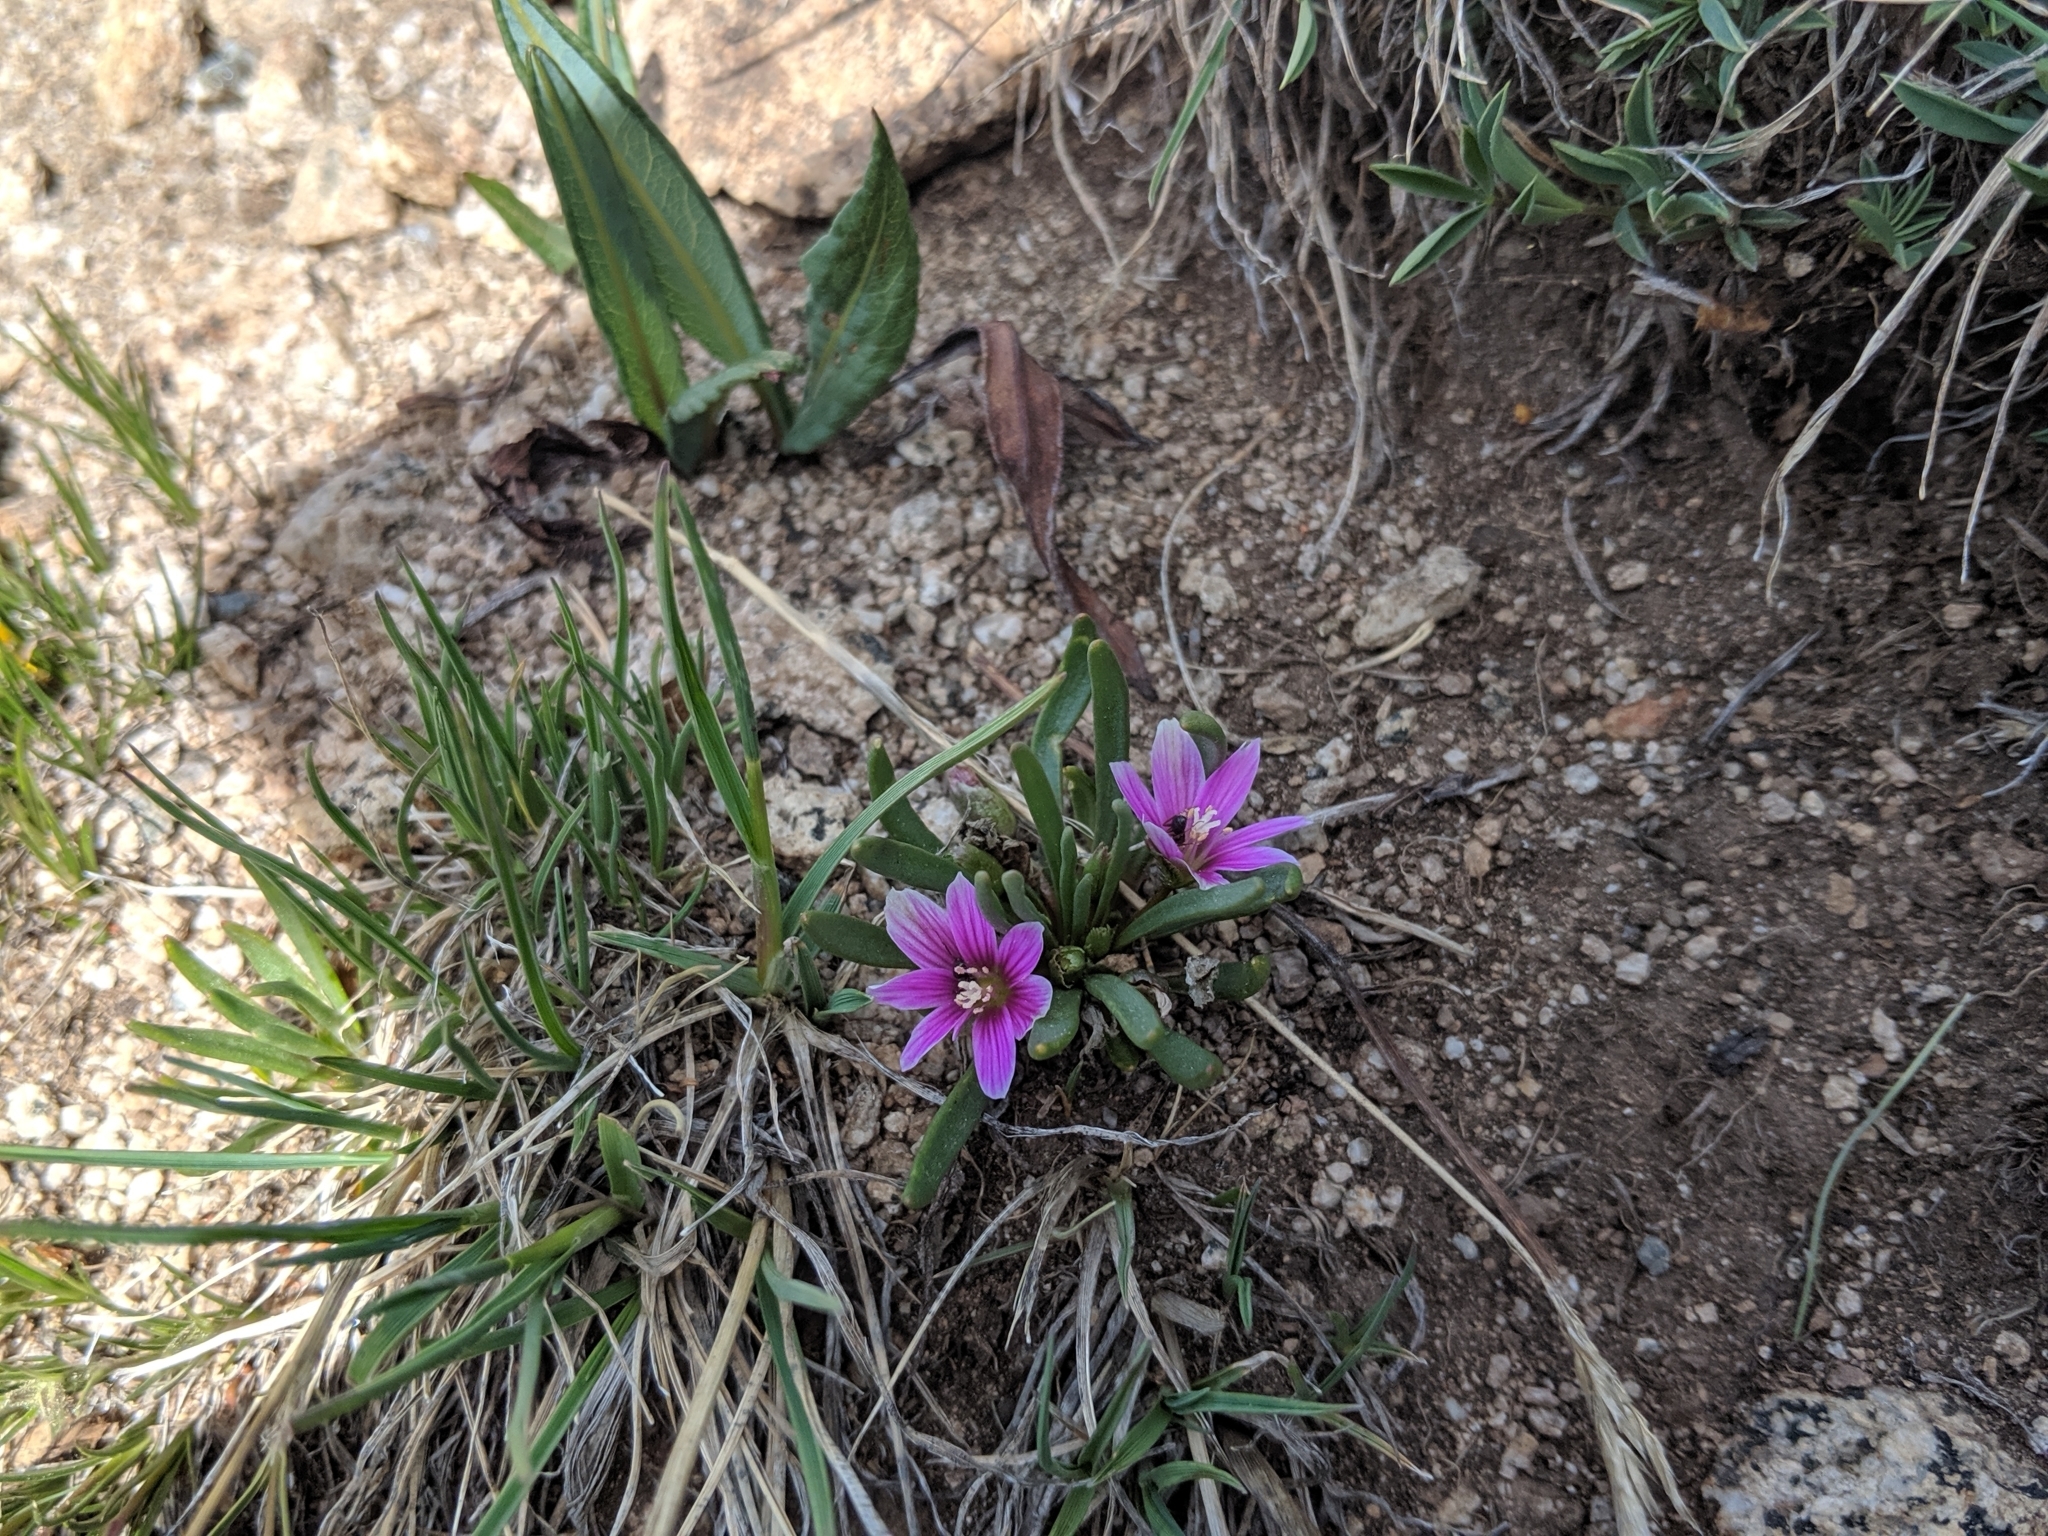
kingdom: Plantae
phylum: Tracheophyta
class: Magnoliopsida
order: Caryophyllales
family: Montiaceae
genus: Lewisia
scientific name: Lewisia pygmaea
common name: Alpine bitterroot
